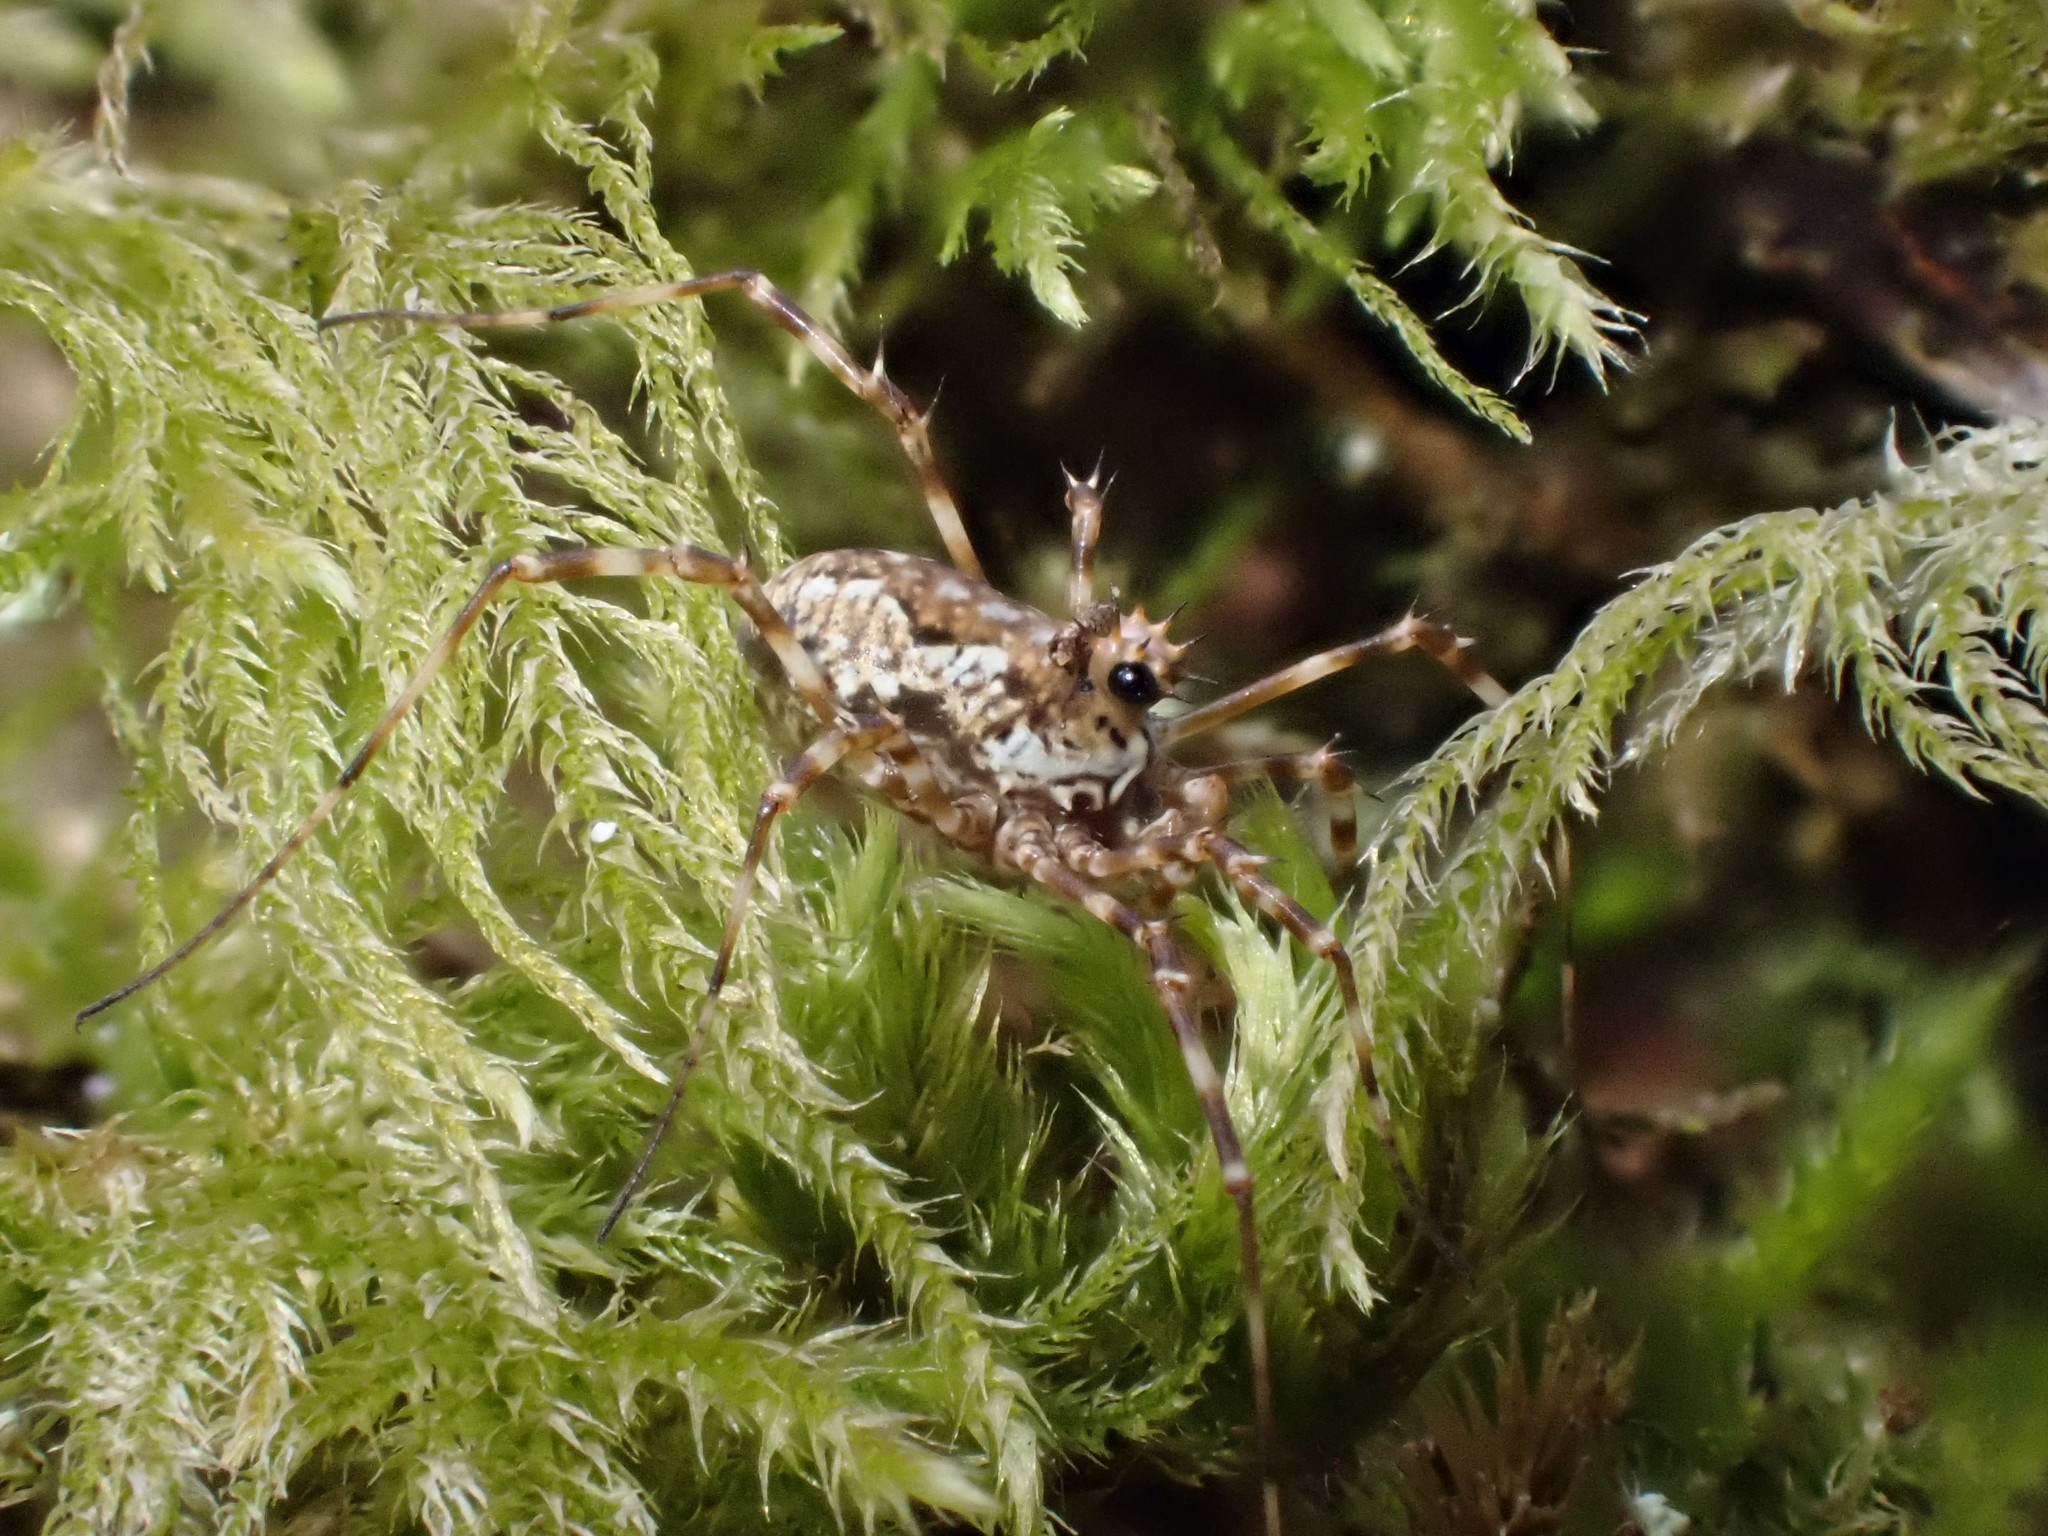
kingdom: Animalia
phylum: Arthropoda
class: Arachnida
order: Opiliones
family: Phalangiidae
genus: Megabunus
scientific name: Megabunus diadema
